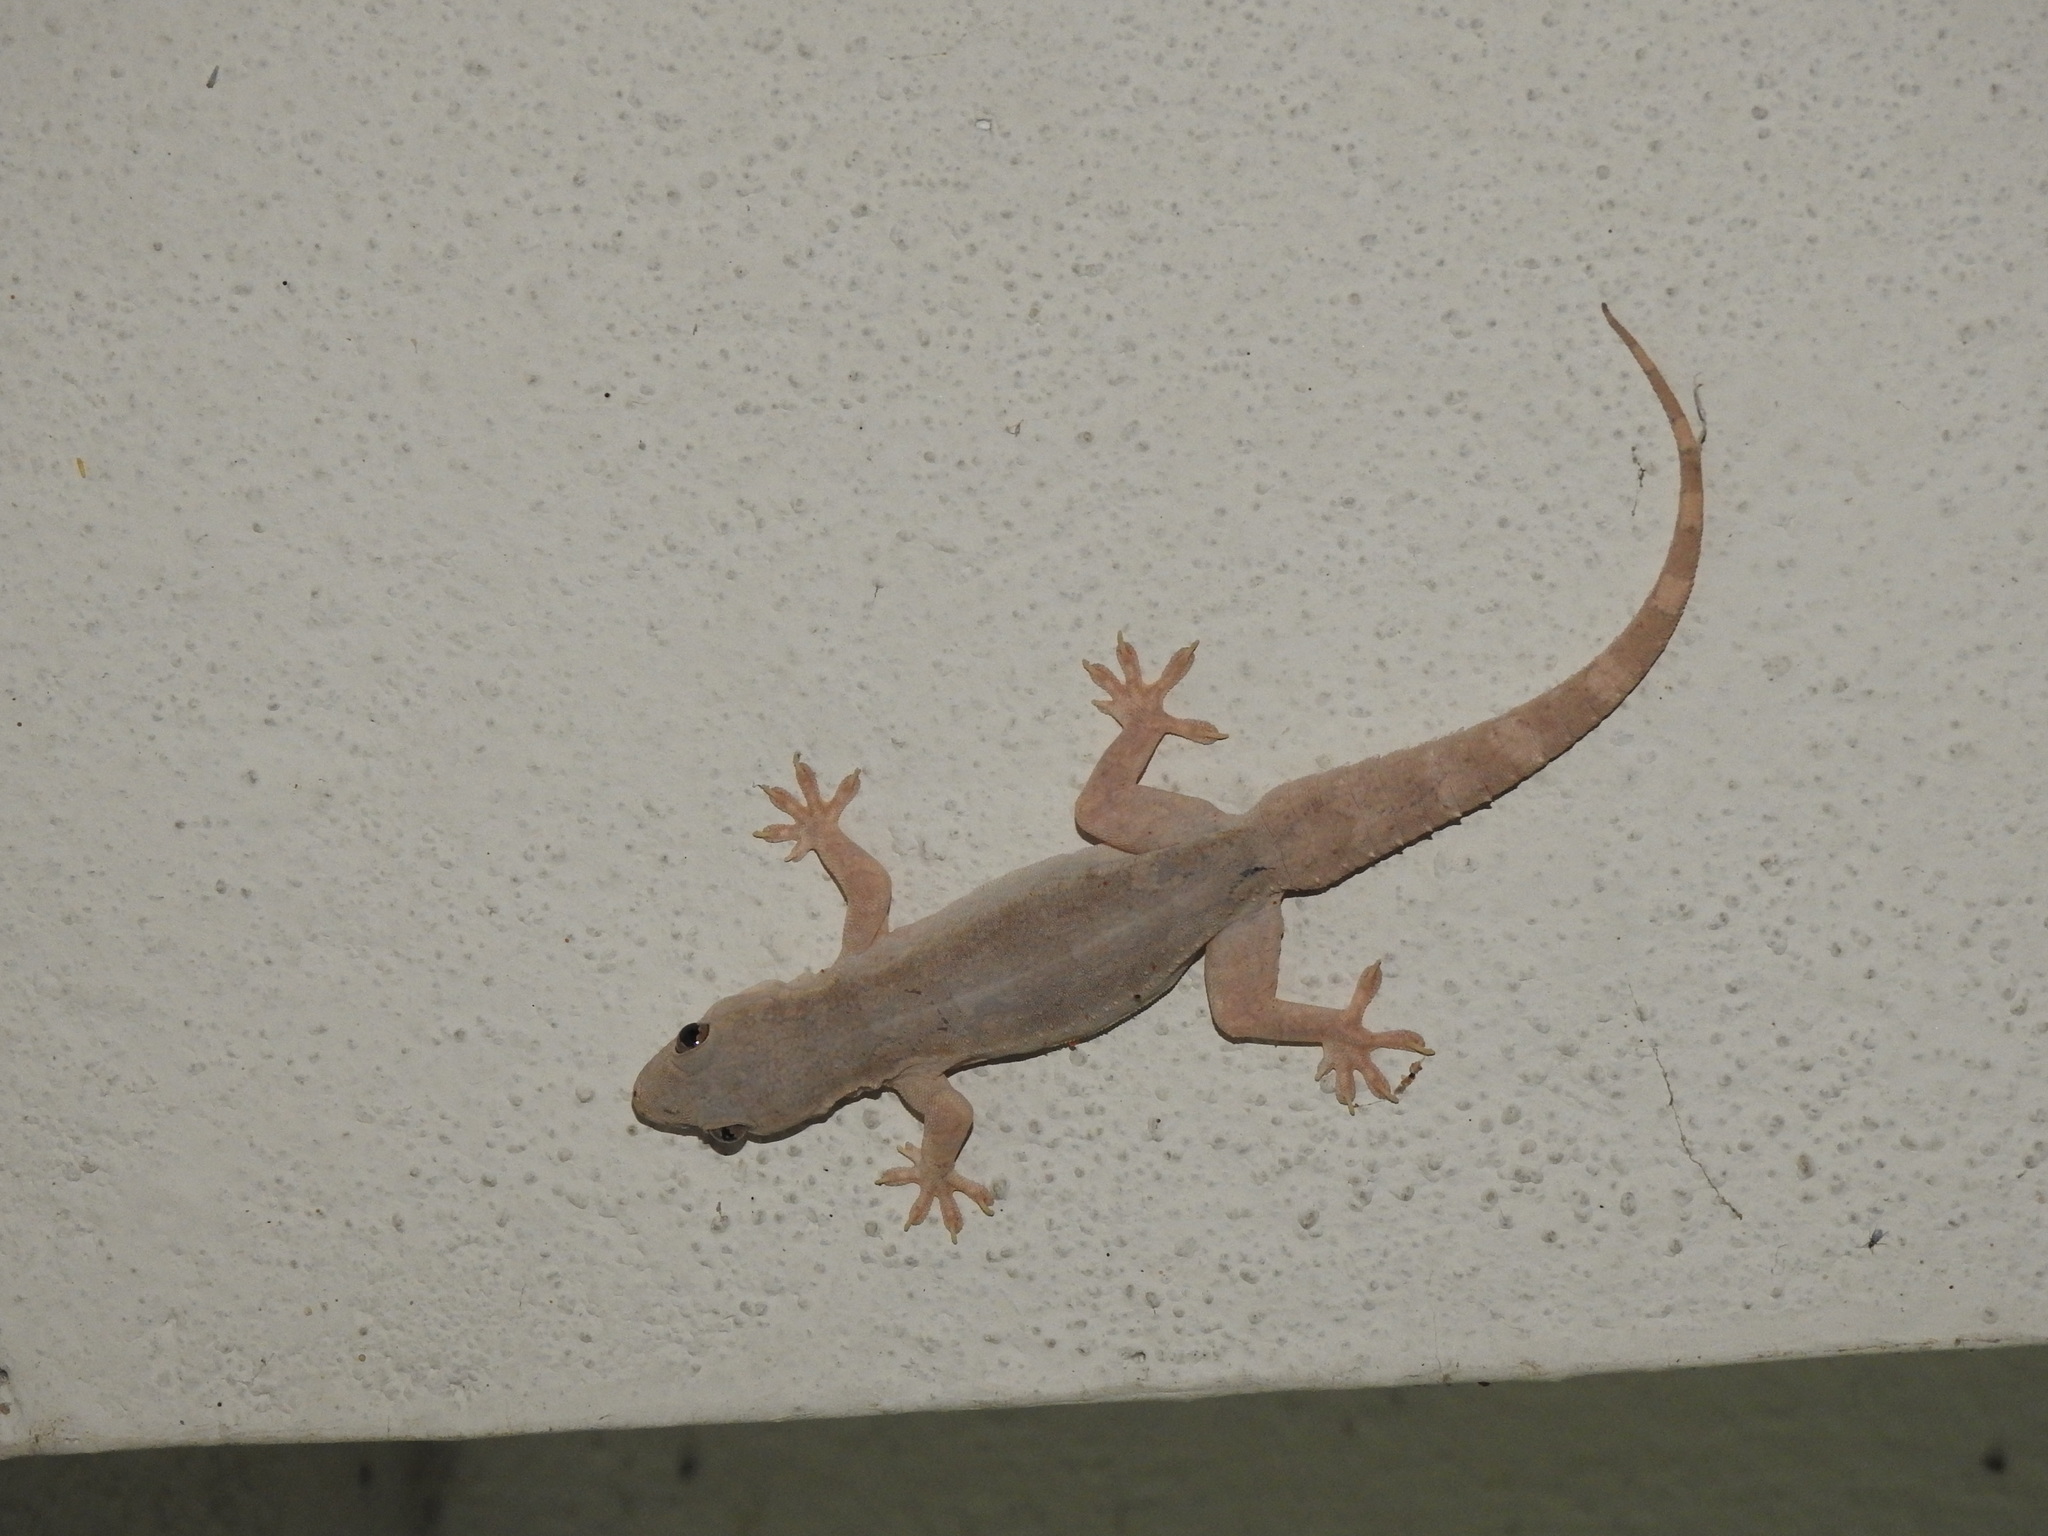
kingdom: Animalia
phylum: Chordata
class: Squamata
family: Gekkonidae
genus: Hemidactylus
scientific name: Hemidactylus flaviviridis
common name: Northern house gecko
